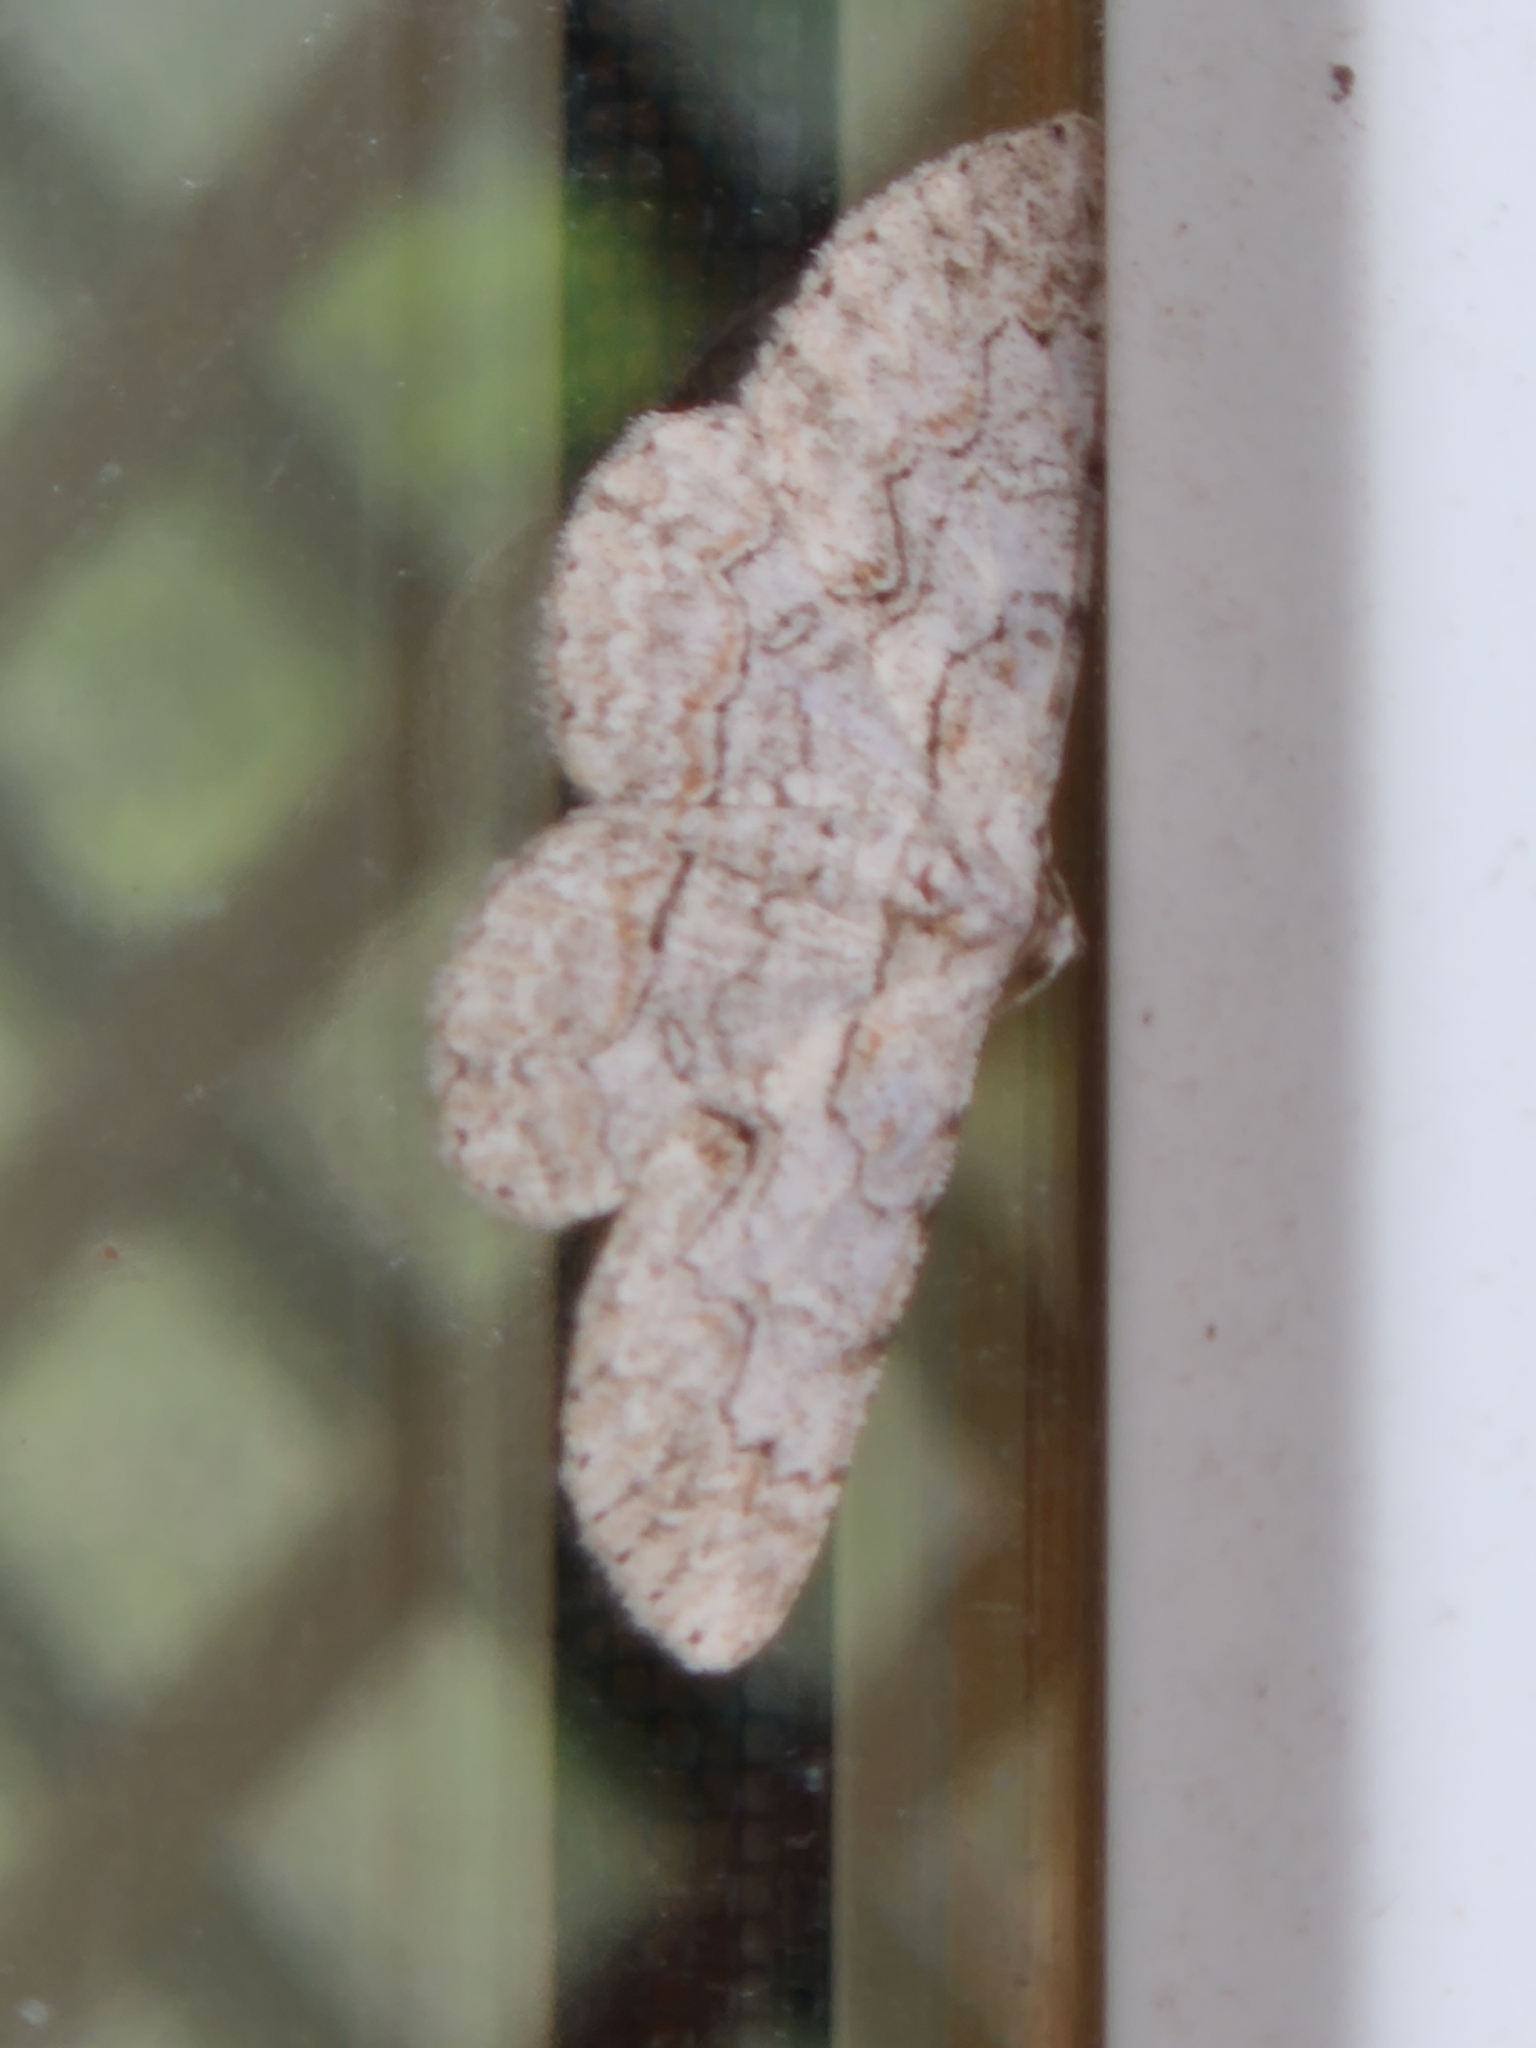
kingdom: Animalia
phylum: Arthropoda
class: Insecta
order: Lepidoptera
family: Geometridae
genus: Iridopsis
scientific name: Iridopsis defectaria
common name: Brown-shaded gray
